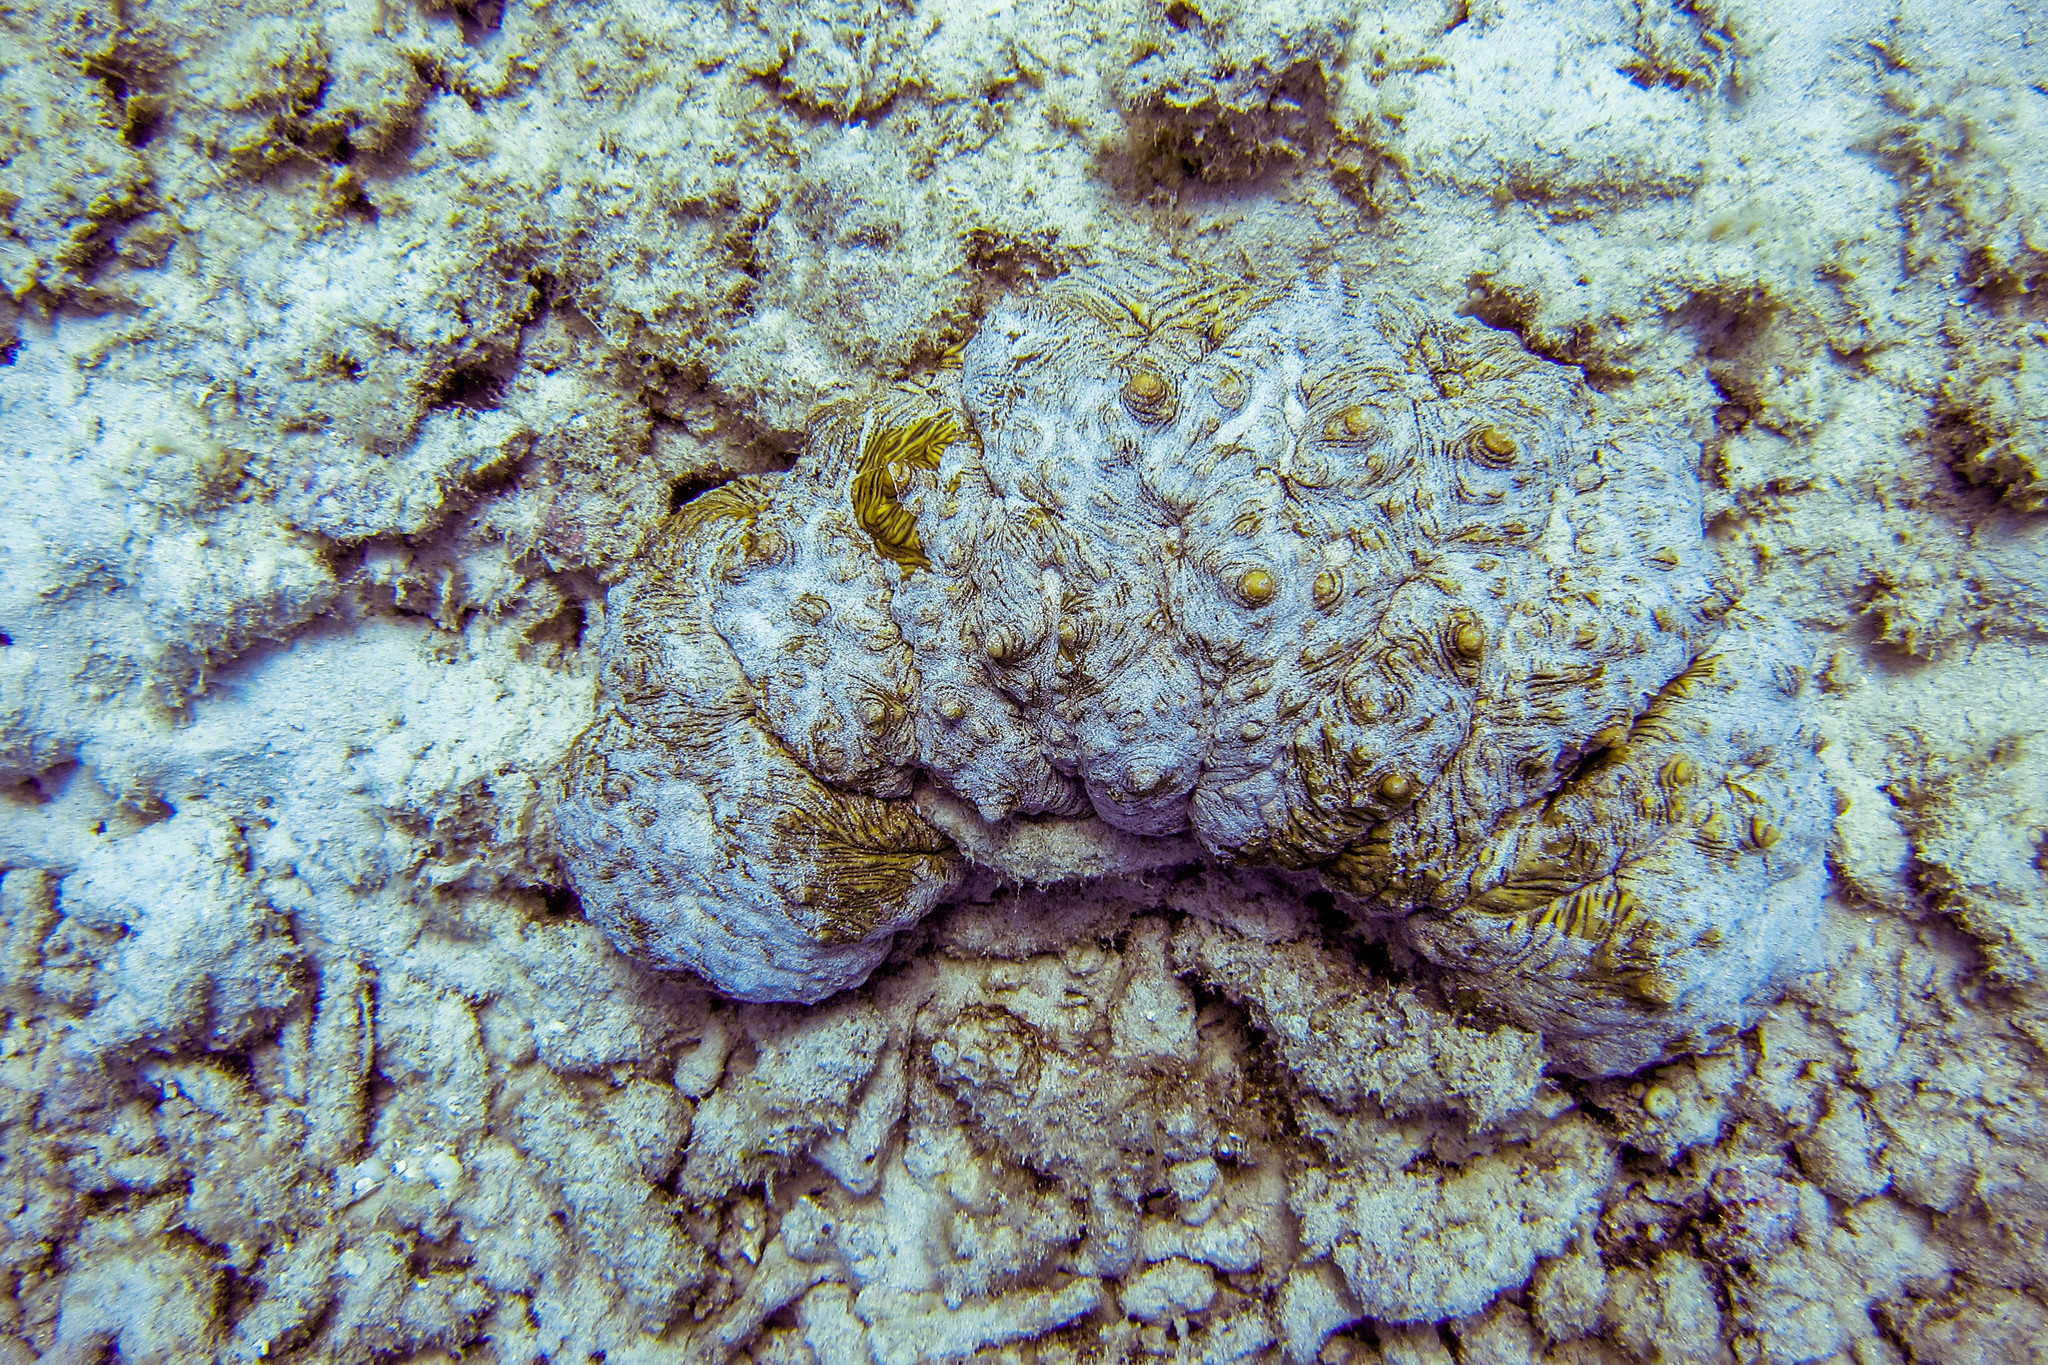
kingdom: Animalia
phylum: Echinodermata
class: Holothuroidea
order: Synallactida
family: Stichopodidae
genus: Stichopus
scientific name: Stichopus vastus
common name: Curryfish
